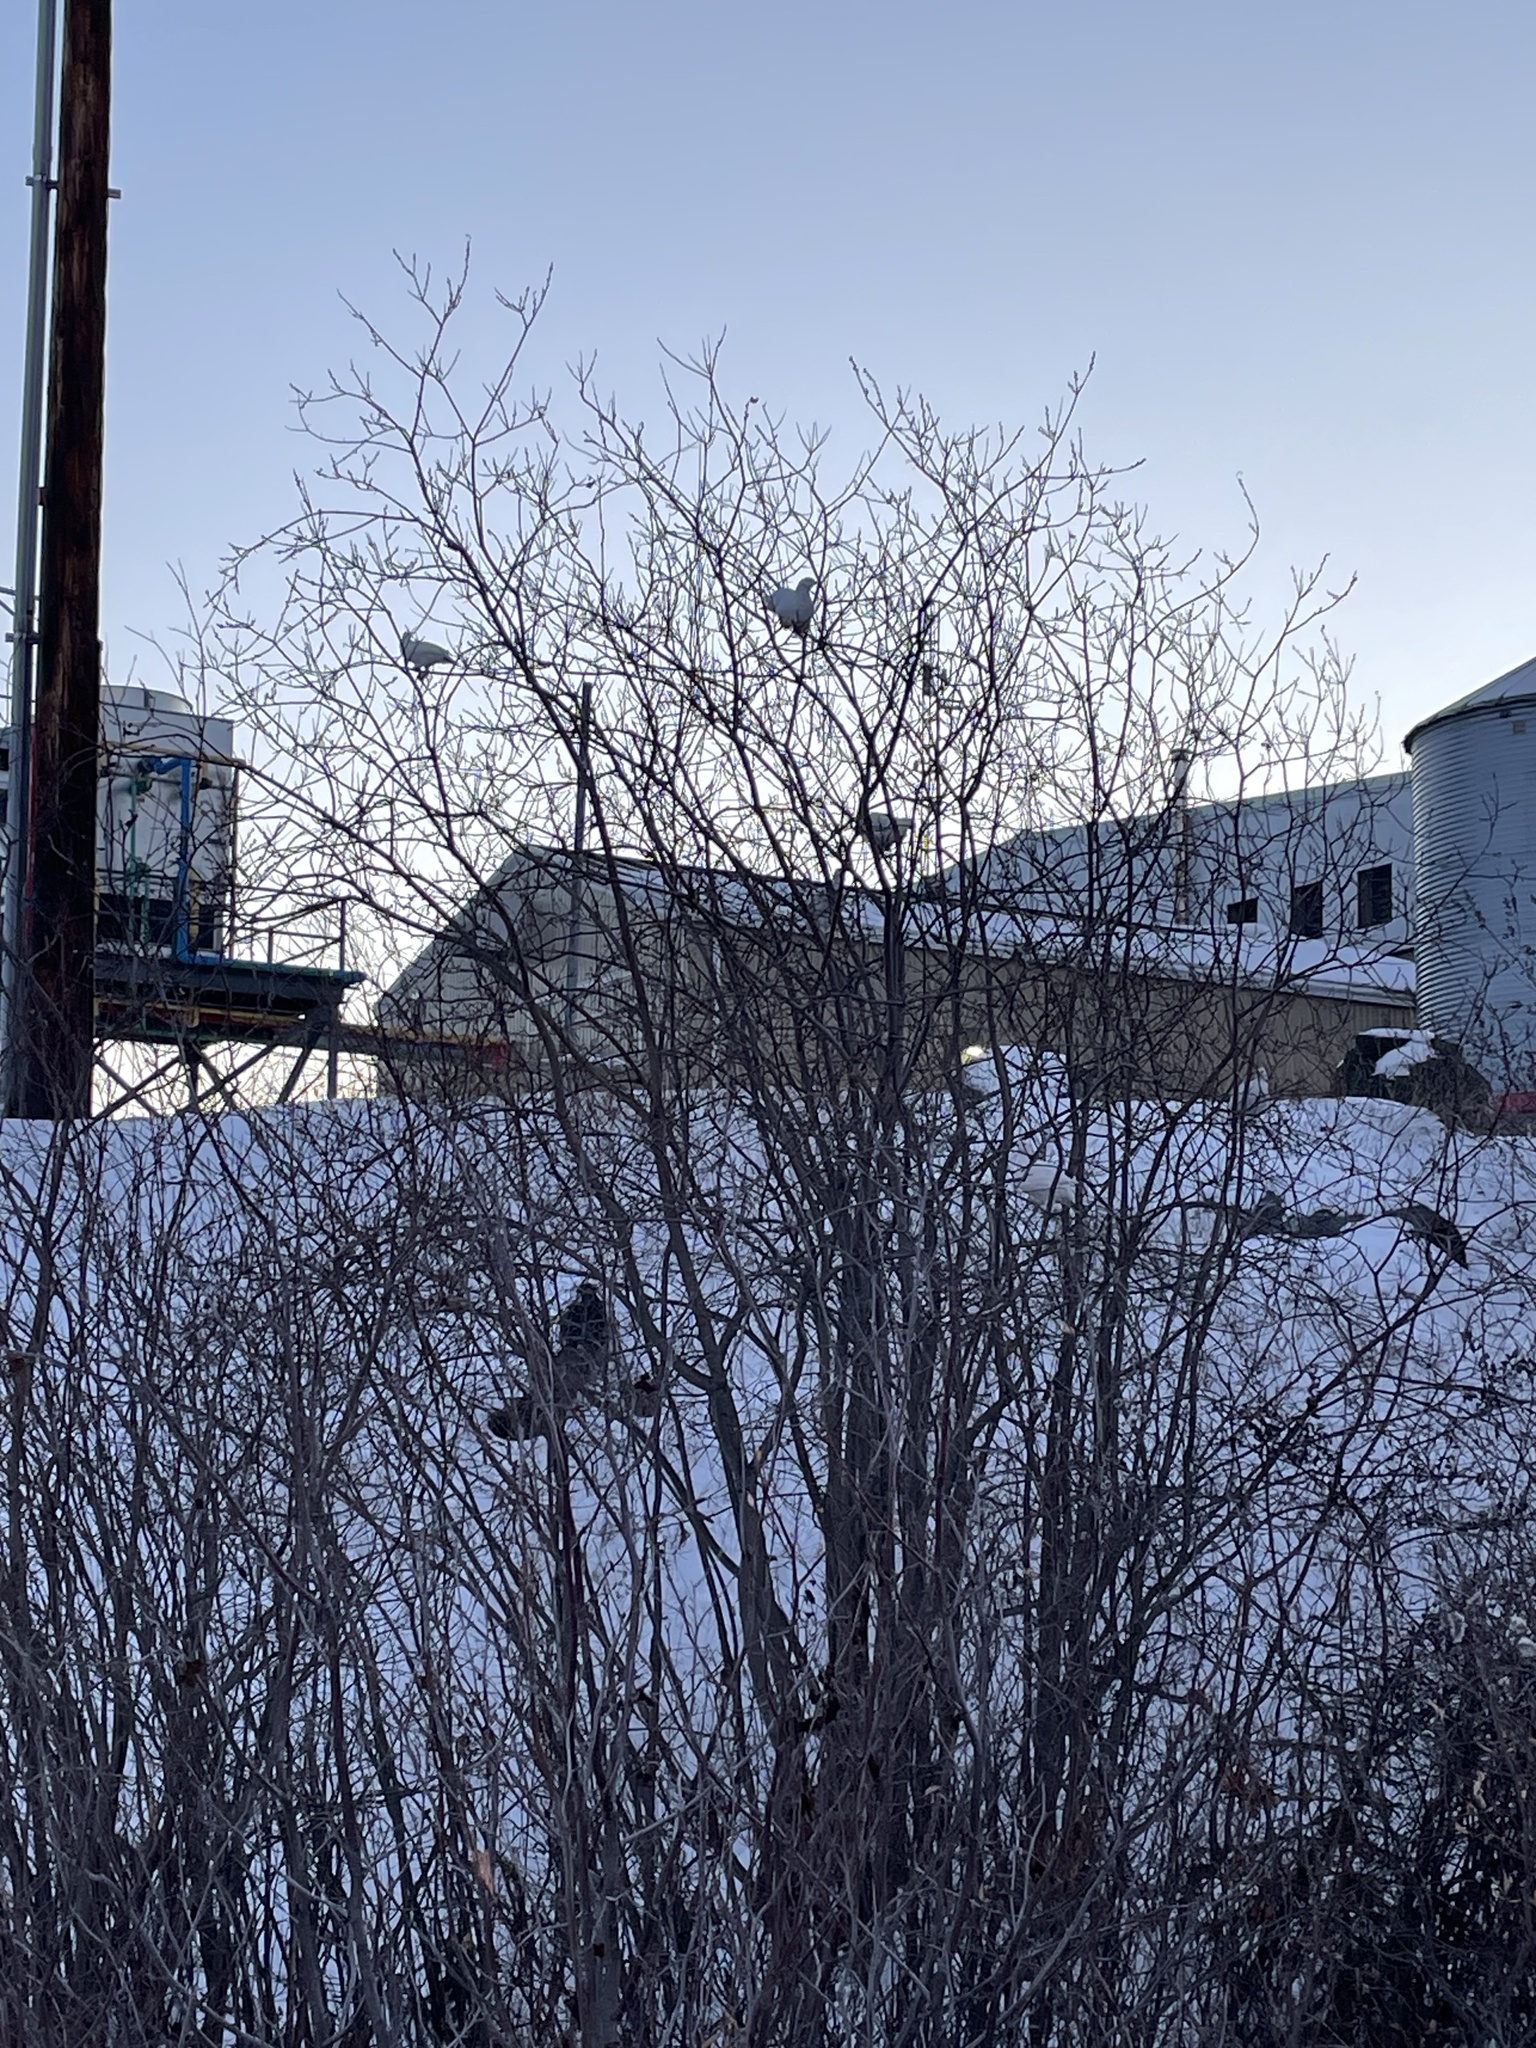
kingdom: Animalia
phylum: Chordata
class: Aves
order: Galliformes
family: Phasianidae
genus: Lagopus
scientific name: Lagopus lagopus
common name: Willow ptarmigan
